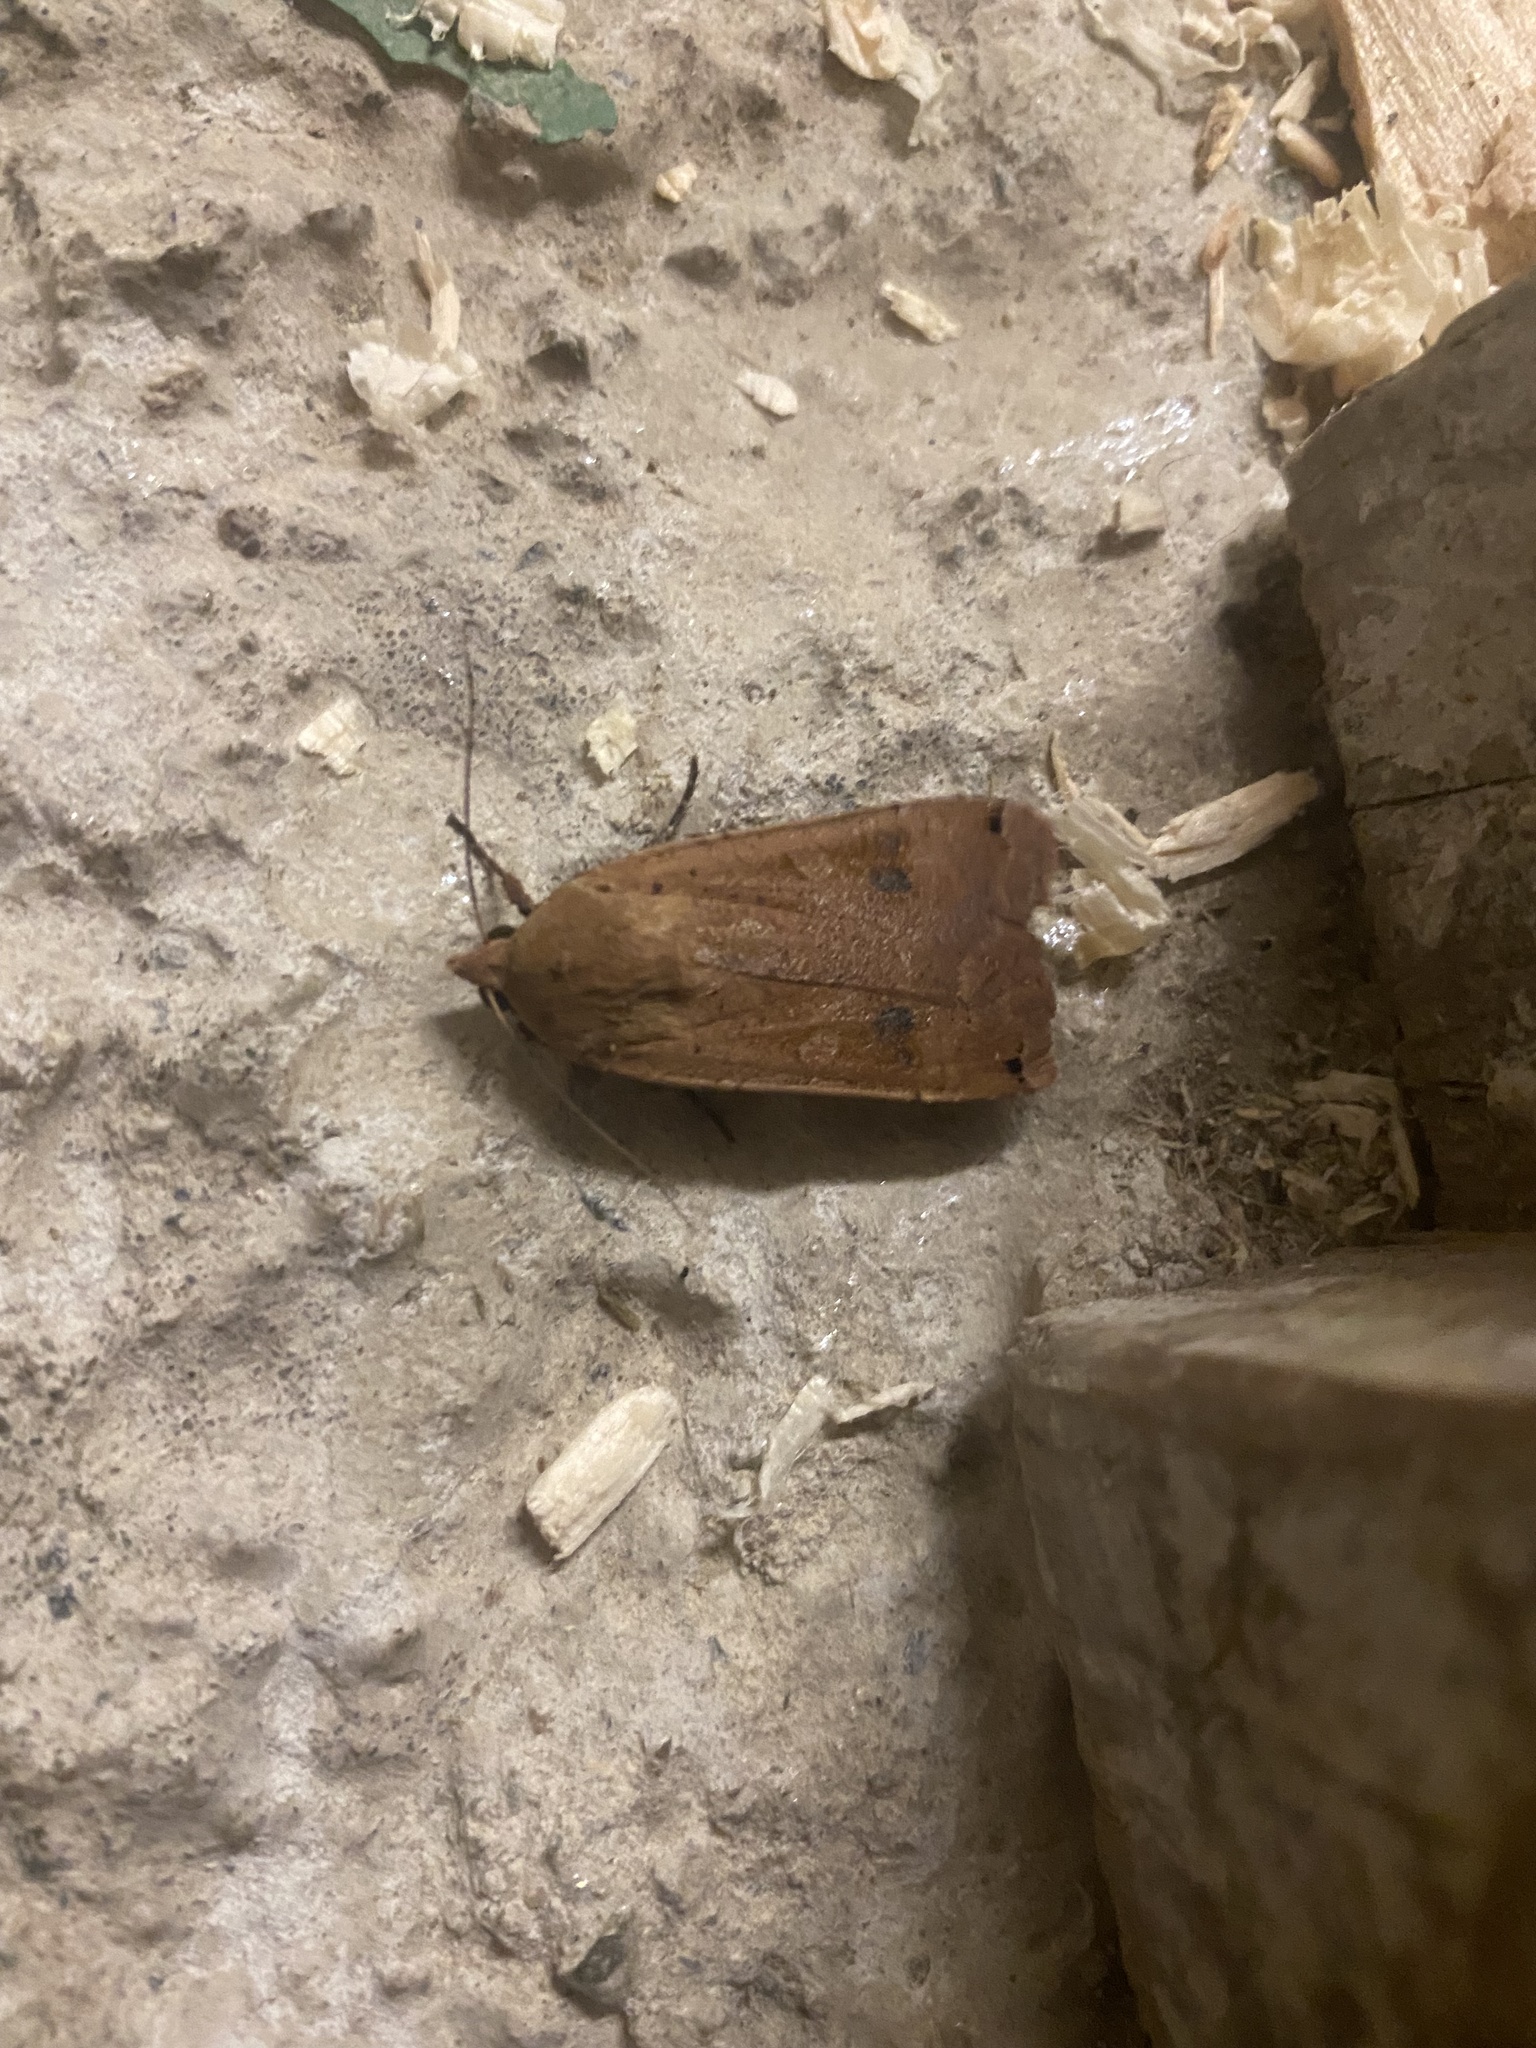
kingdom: Animalia
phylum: Arthropoda
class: Insecta
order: Lepidoptera
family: Noctuidae
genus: Noctua
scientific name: Noctua pronuba
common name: Large yellow underwing
